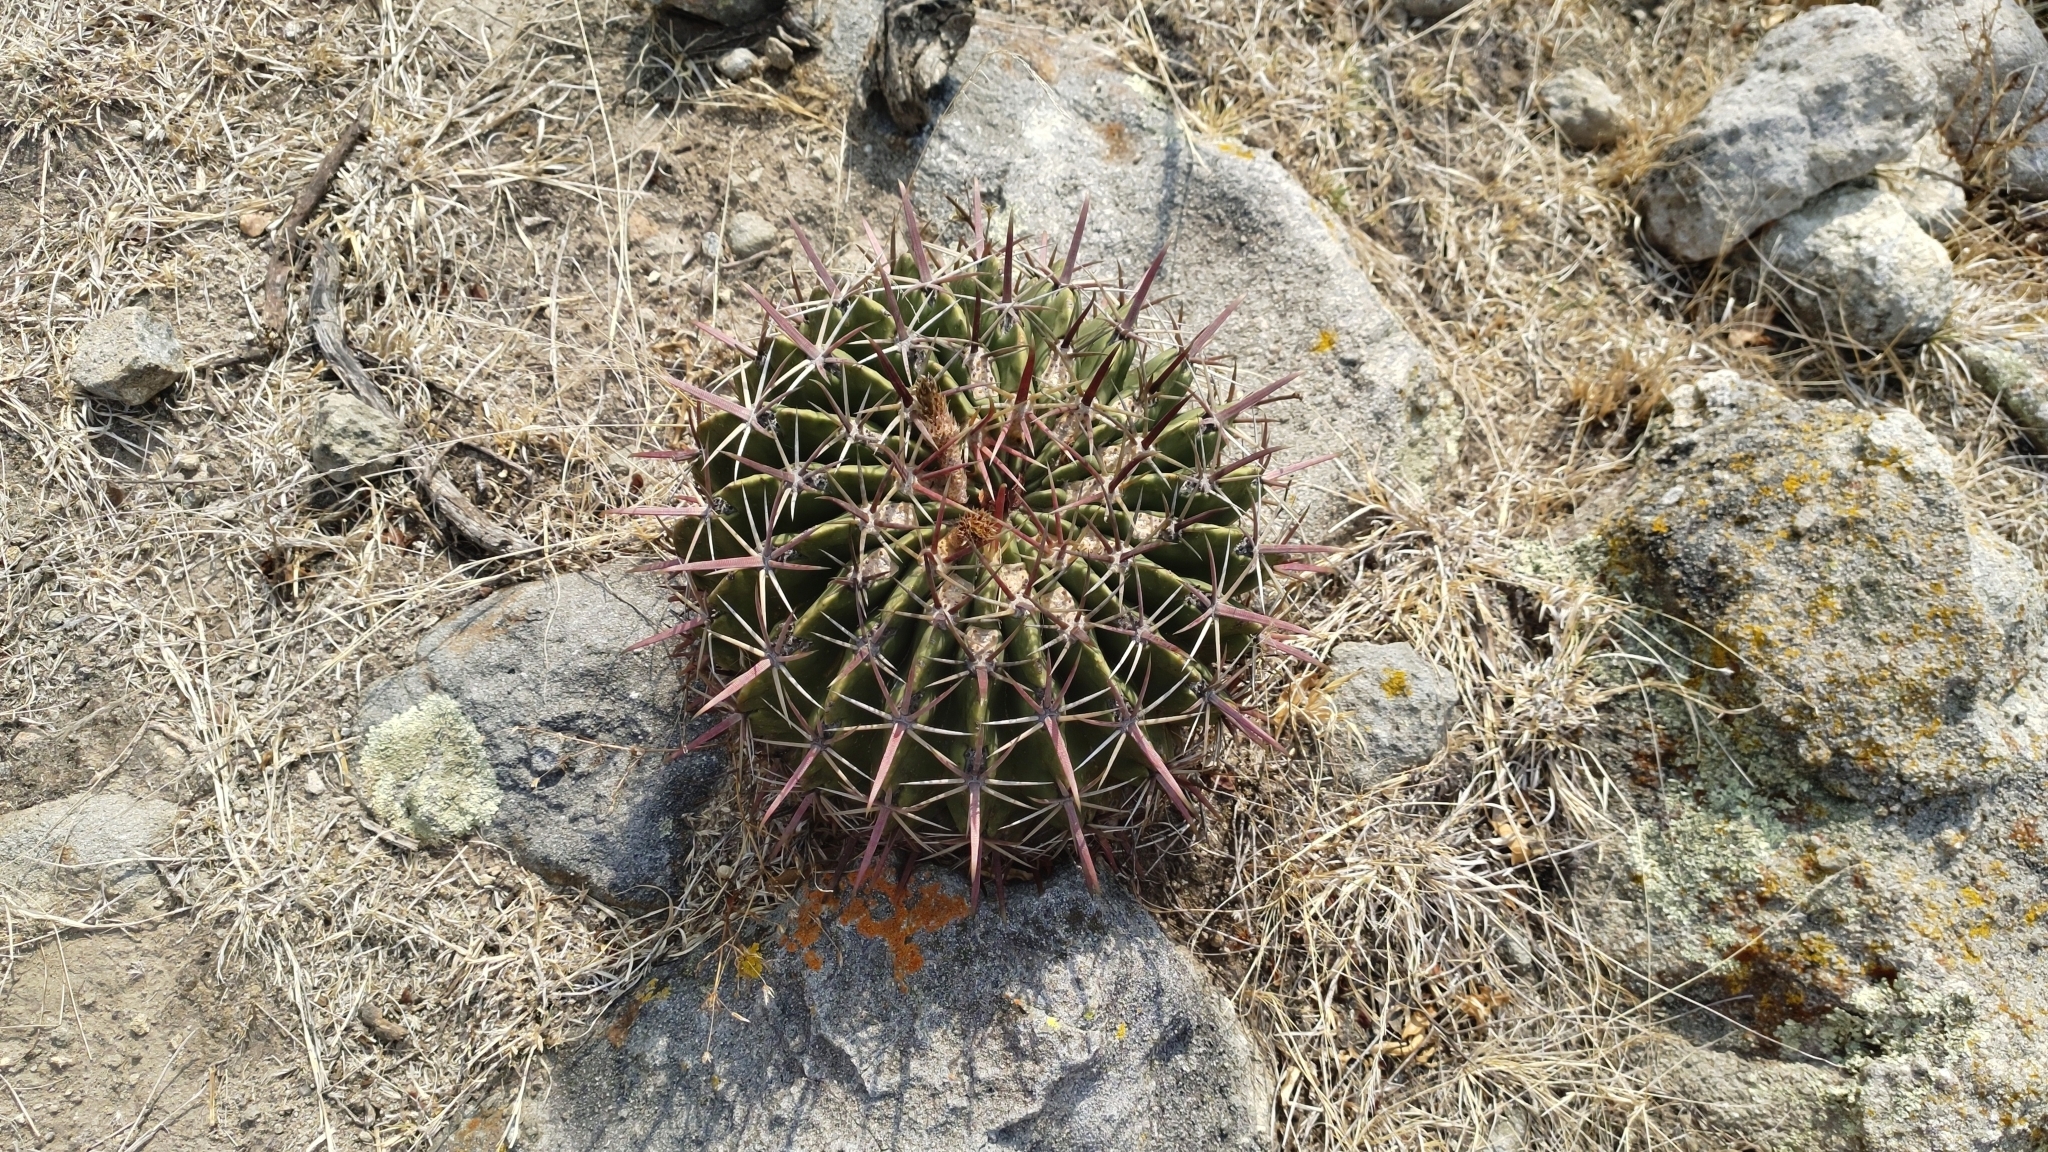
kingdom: Plantae
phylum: Tracheophyta
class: Magnoliopsida
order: Caryophyllales
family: Cactaceae
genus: Ferocactus
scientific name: Ferocactus latispinus
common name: Devil's-tongue cactus
